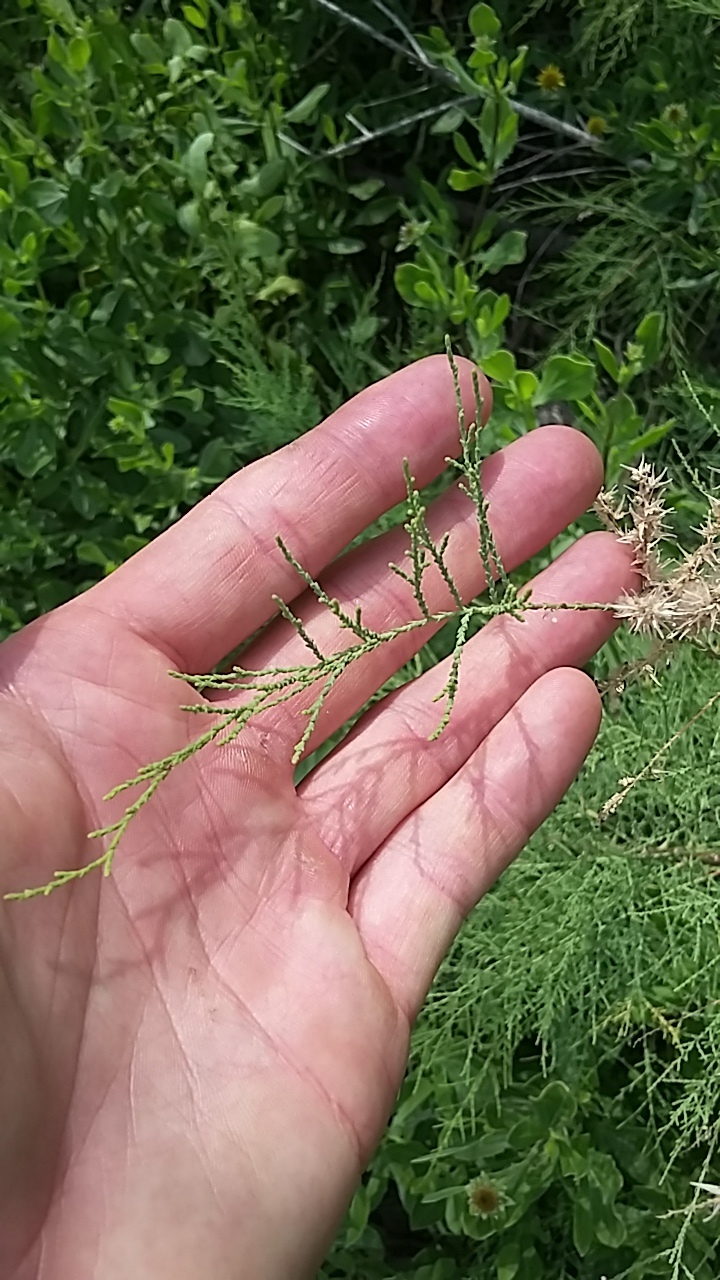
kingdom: Plantae
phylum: Tracheophyta
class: Magnoliopsida
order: Caryophyllales
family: Tamaricaceae
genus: Tamarix
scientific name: Tamarix
